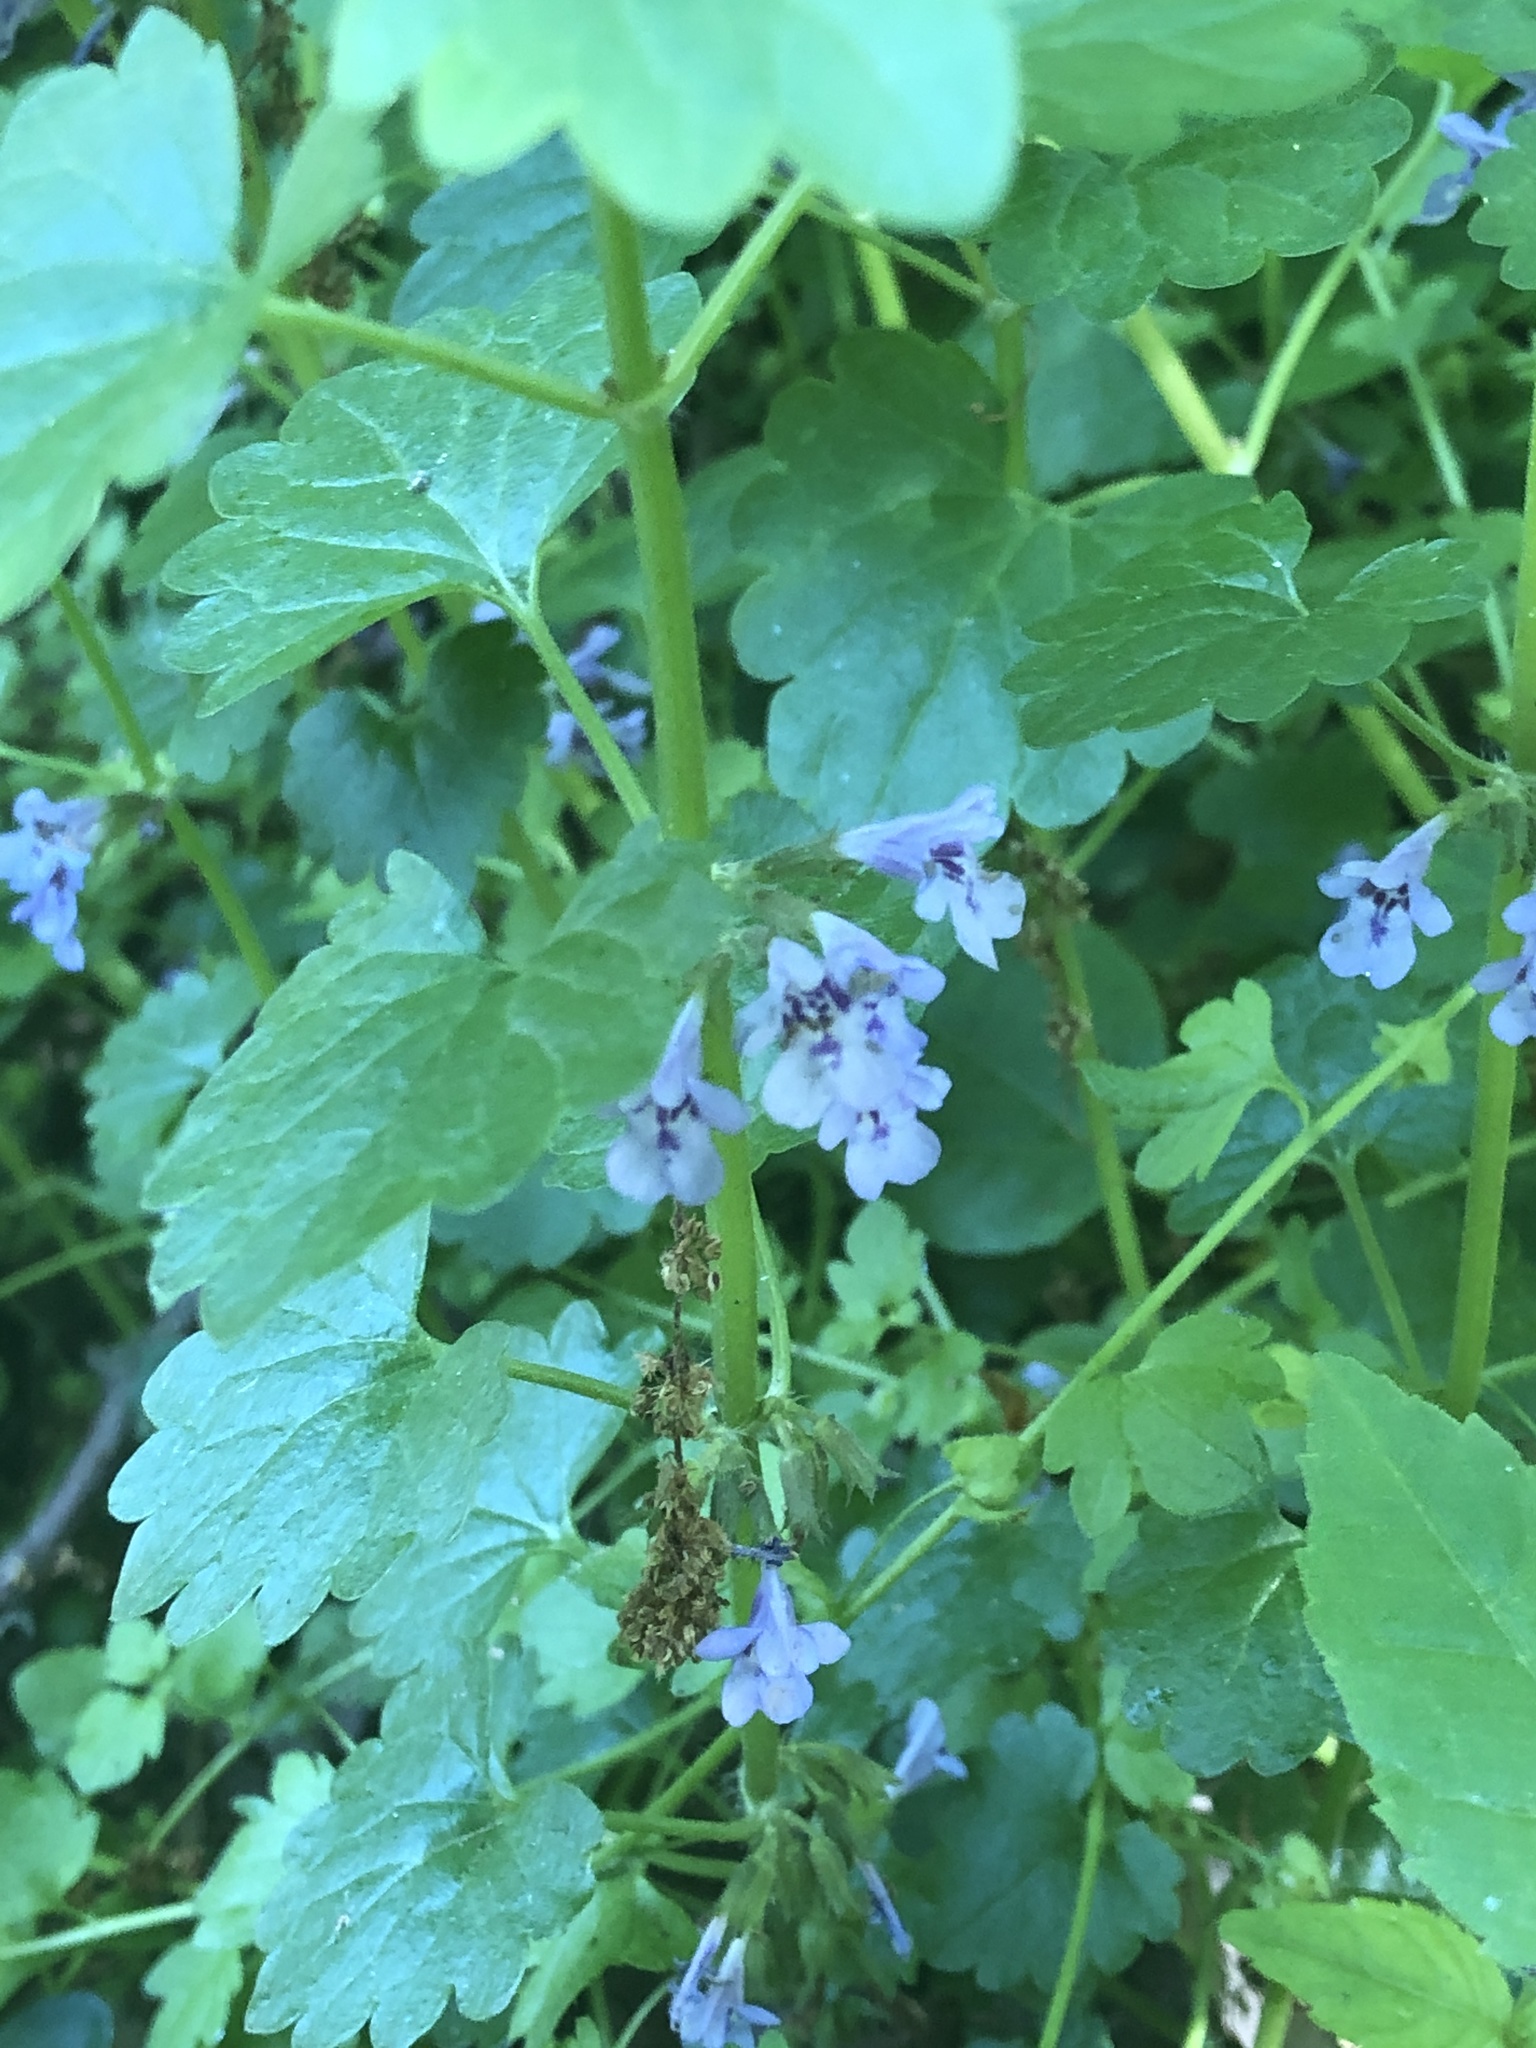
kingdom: Plantae
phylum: Tracheophyta
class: Magnoliopsida
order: Lamiales
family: Lamiaceae
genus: Glechoma
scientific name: Glechoma hederacea
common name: Ground ivy
